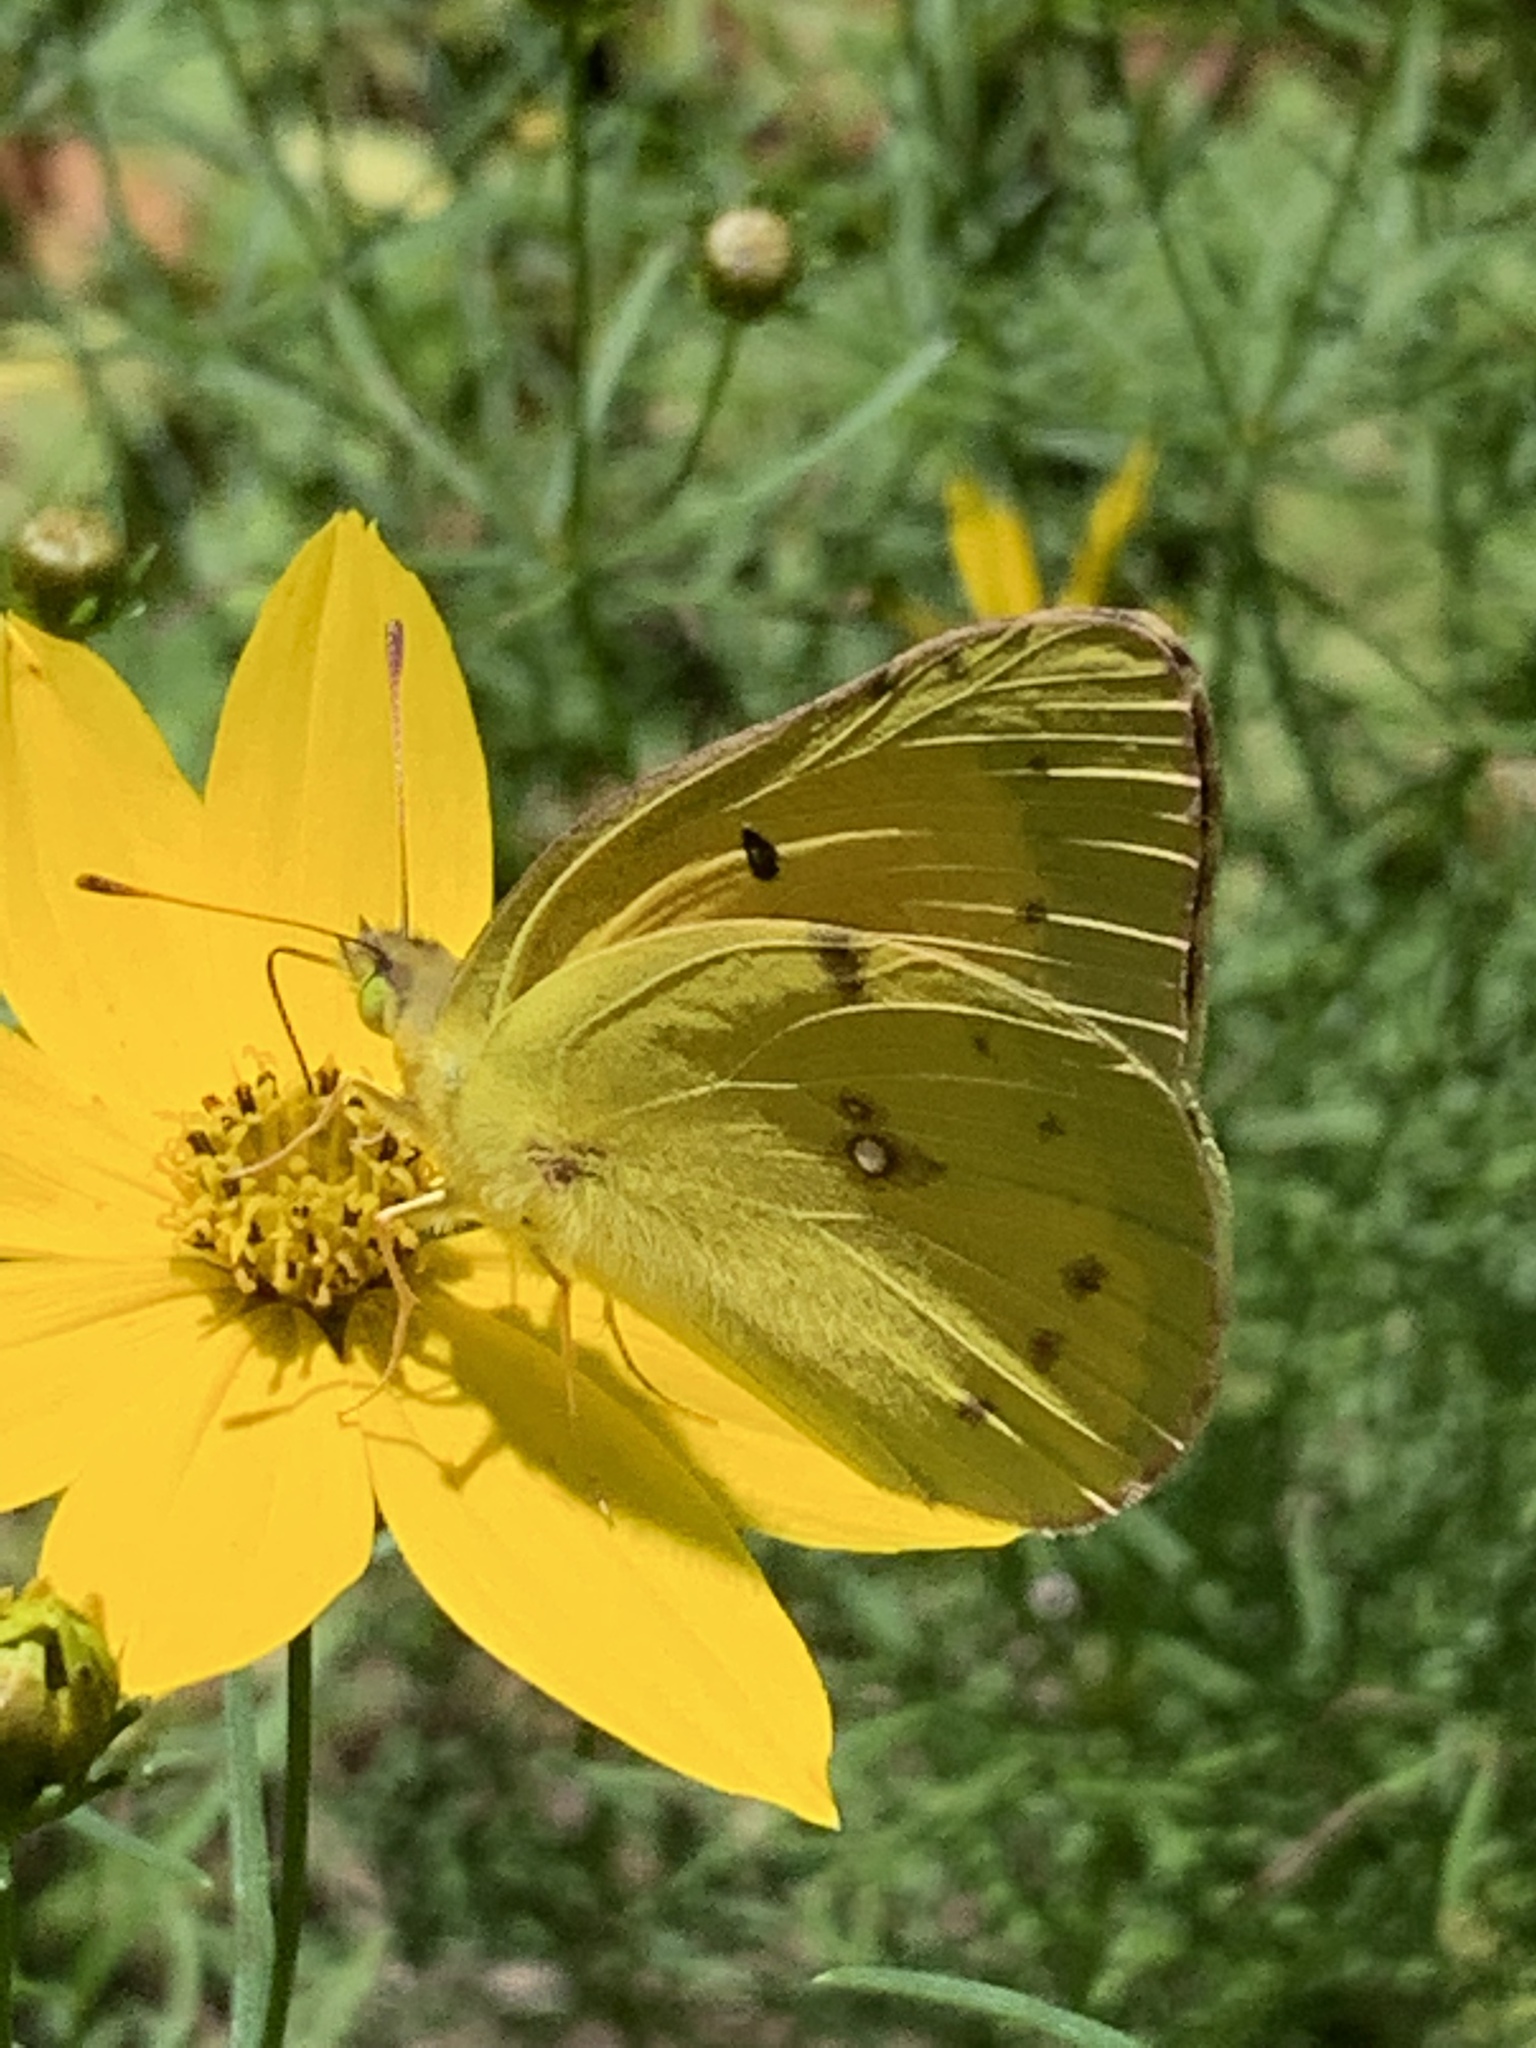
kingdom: Animalia
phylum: Arthropoda
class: Insecta
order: Lepidoptera
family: Pieridae
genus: Colias
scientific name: Colias eurytheme
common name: Alfalfa butterfly
